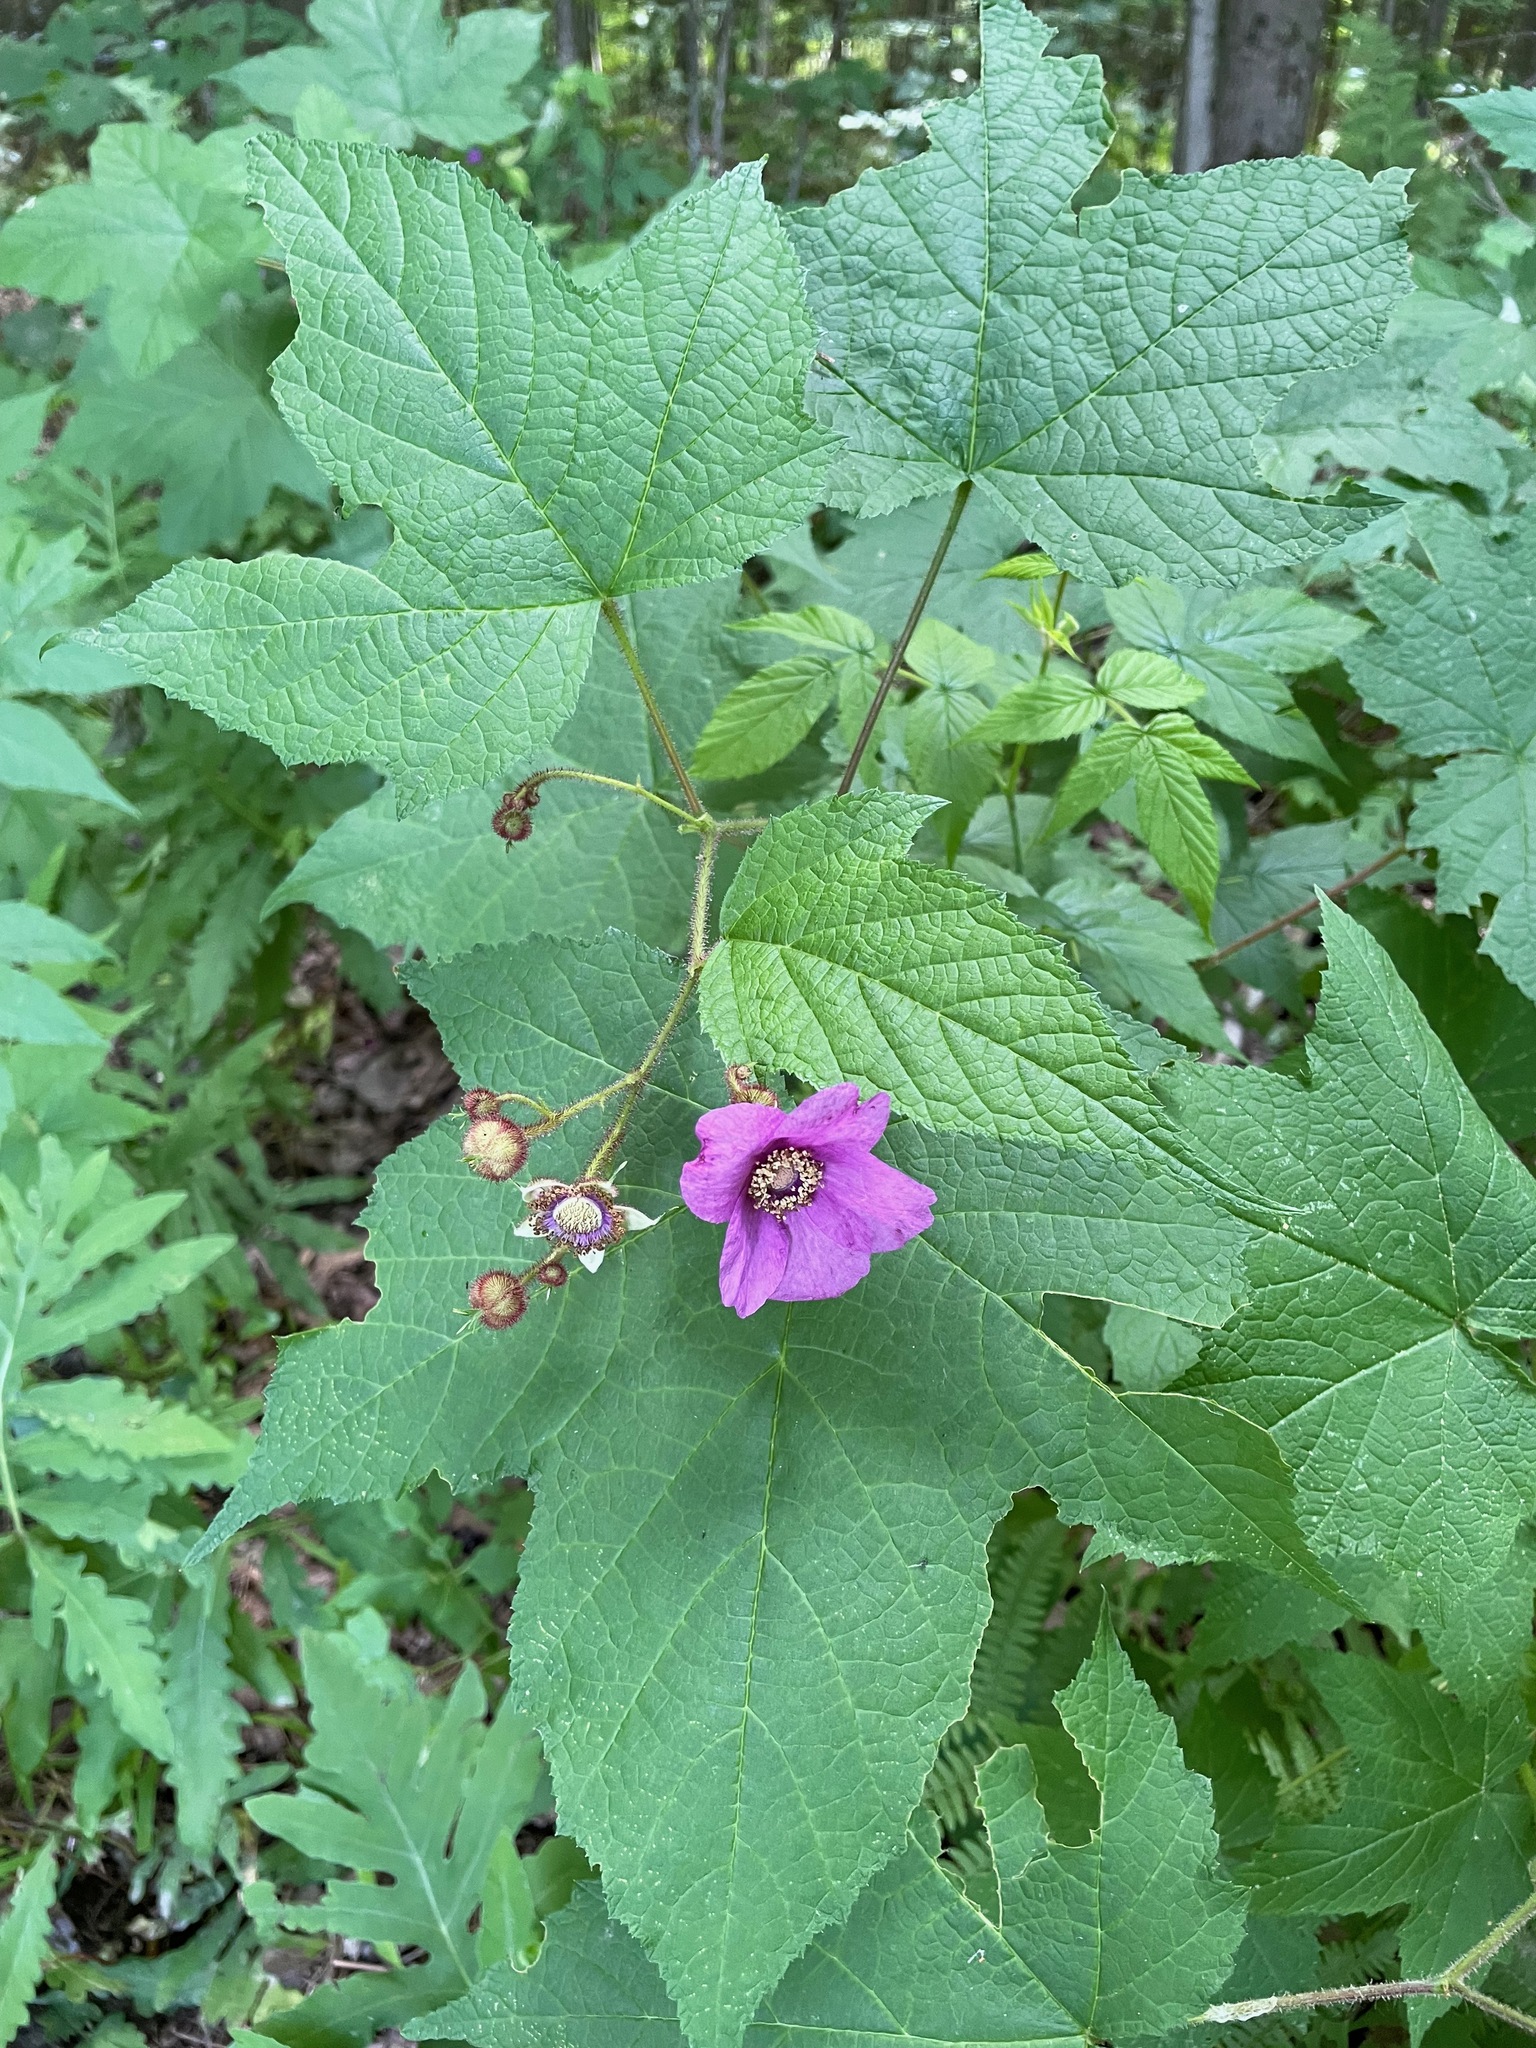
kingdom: Plantae
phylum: Tracheophyta
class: Magnoliopsida
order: Rosales
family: Rosaceae
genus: Rubus
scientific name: Rubus odoratus
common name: Purple-flowered raspberry
